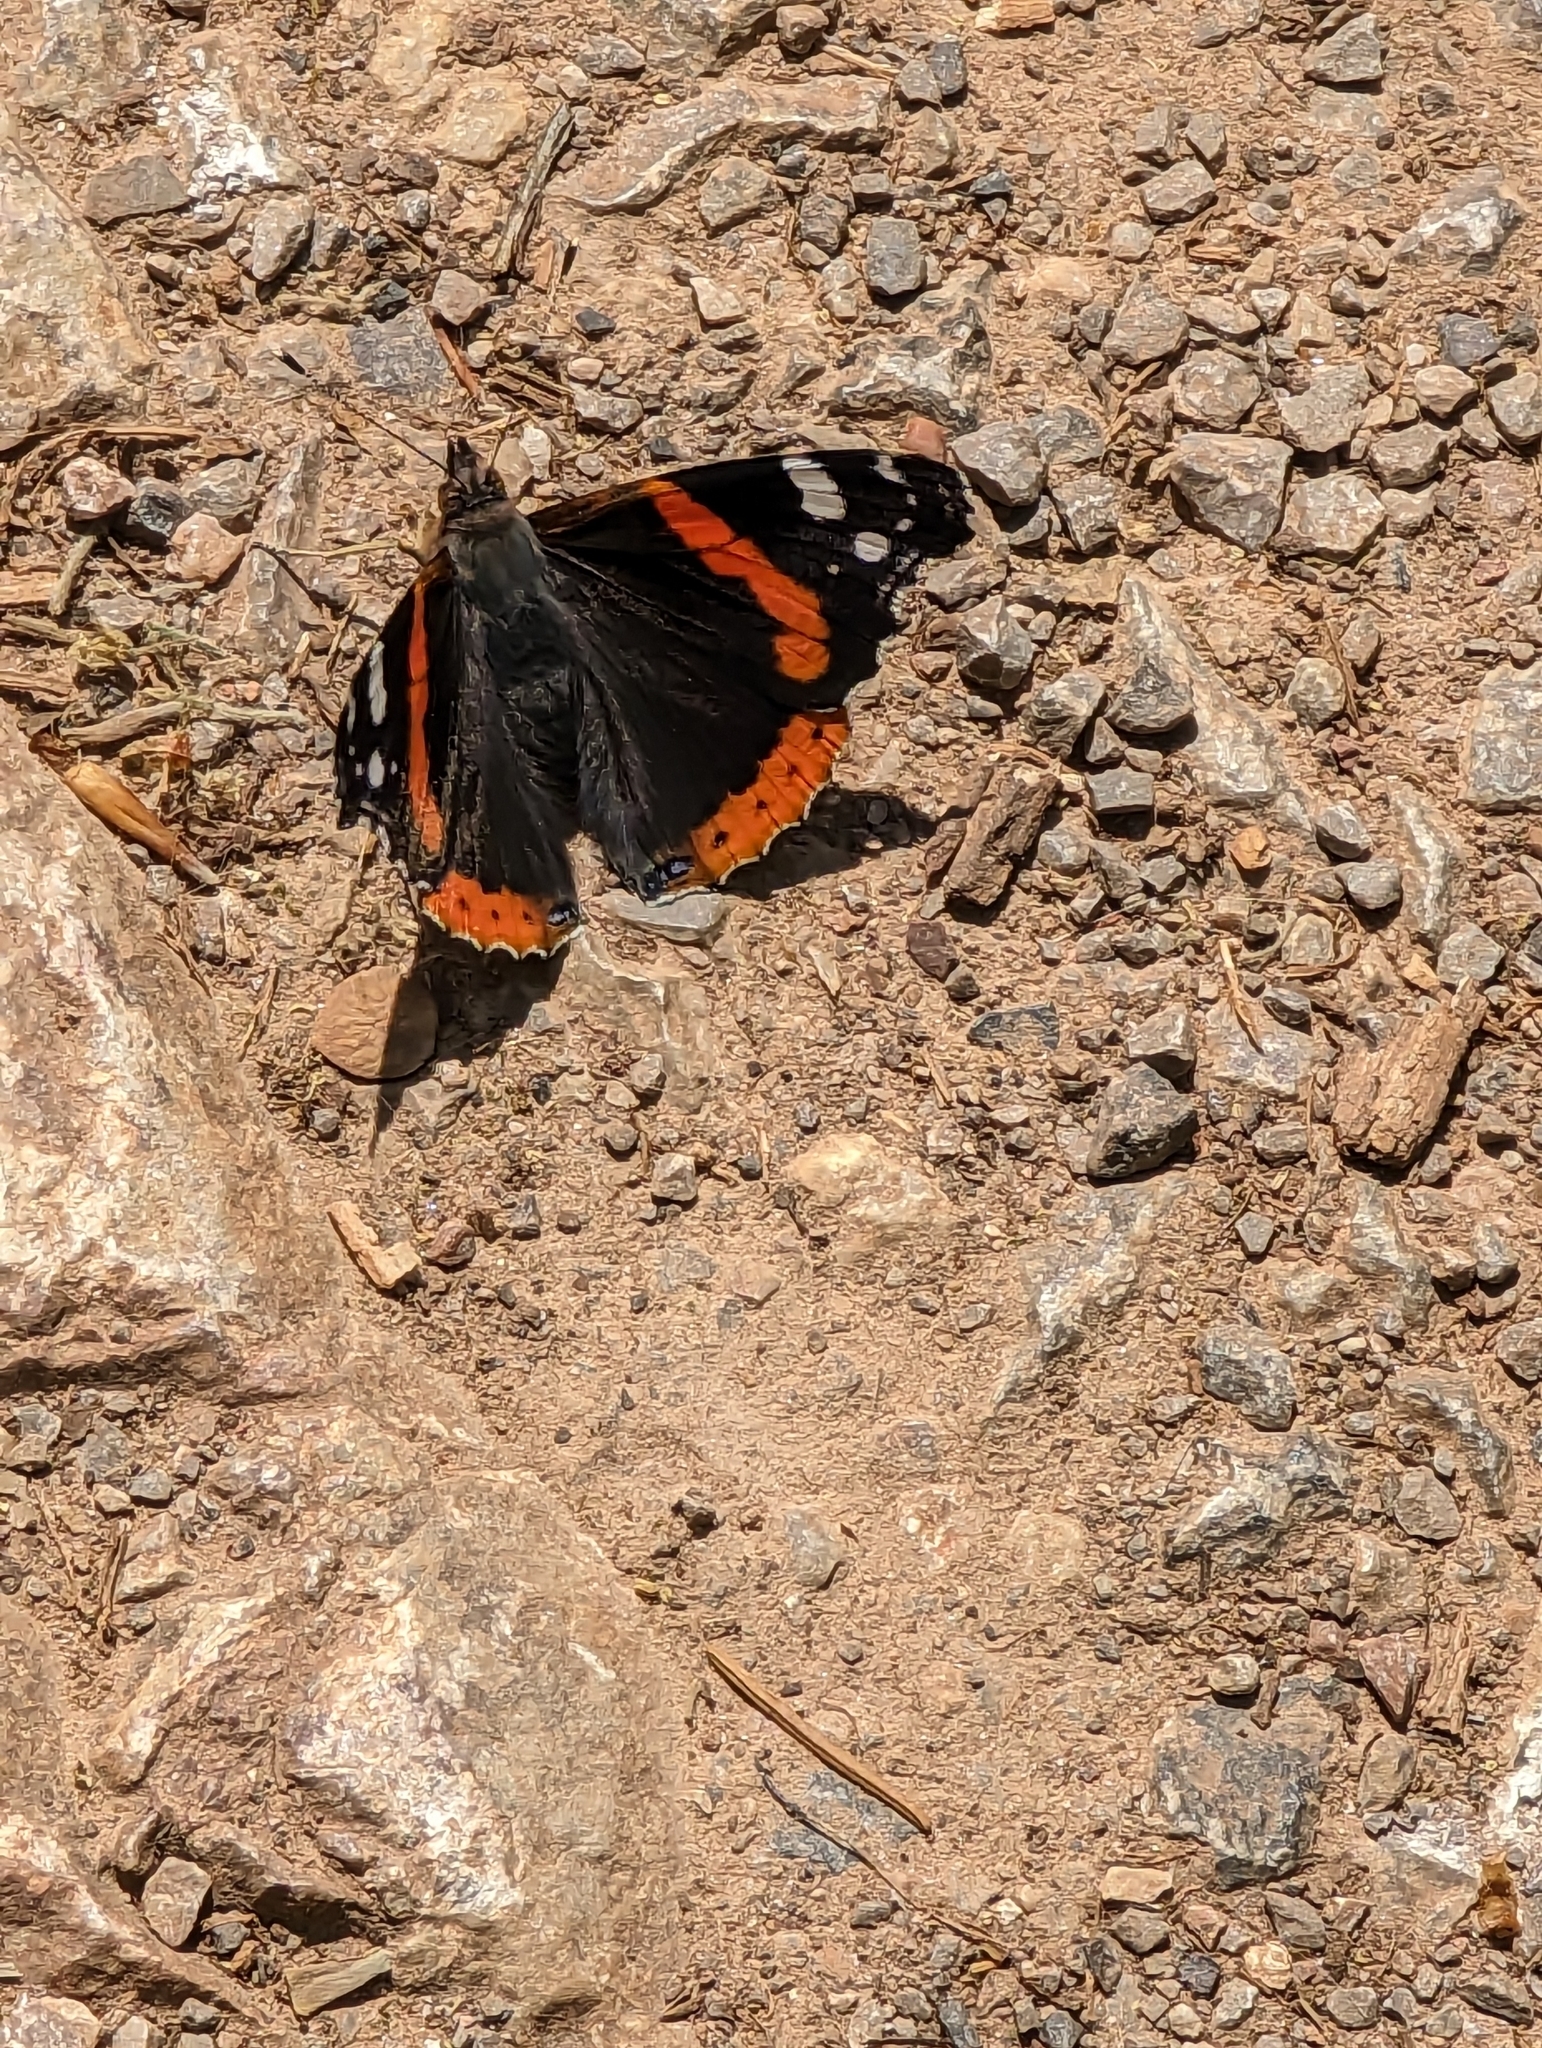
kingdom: Animalia
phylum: Arthropoda
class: Insecta
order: Lepidoptera
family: Nymphalidae
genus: Vanessa
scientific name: Vanessa atalanta
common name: Red admiral
